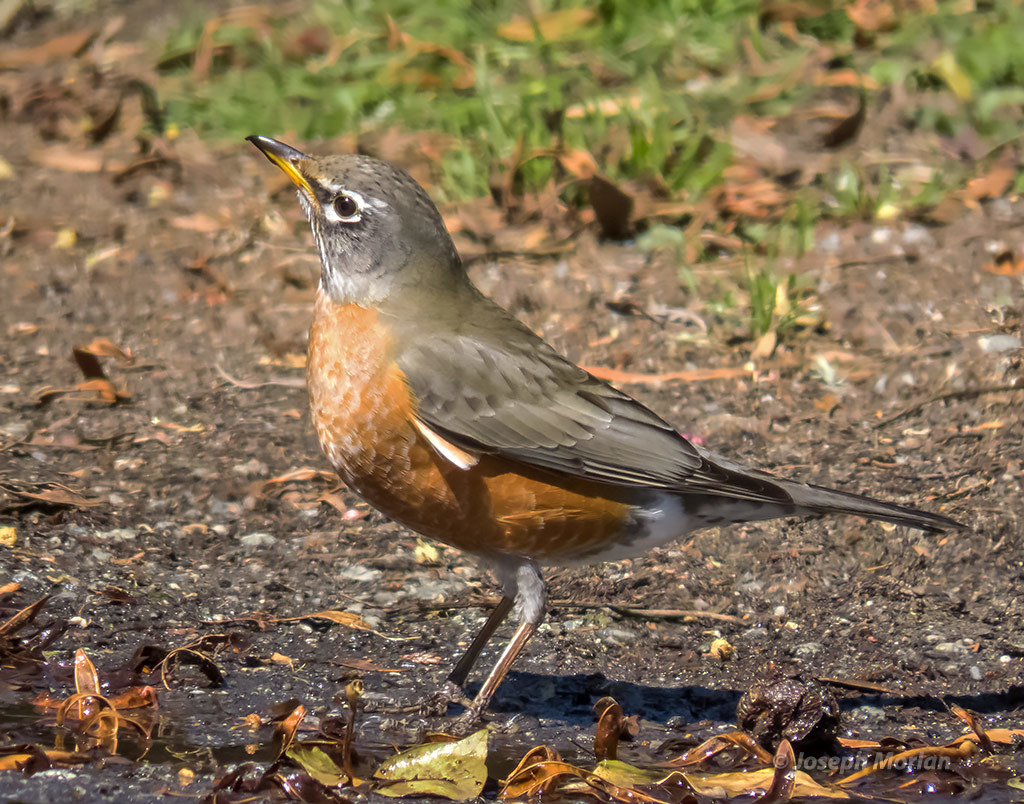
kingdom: Animalia
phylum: Chordata
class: Aves
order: Passeriformes
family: Turdidae
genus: Turdus
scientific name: Turdus migratorius
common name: American robin
